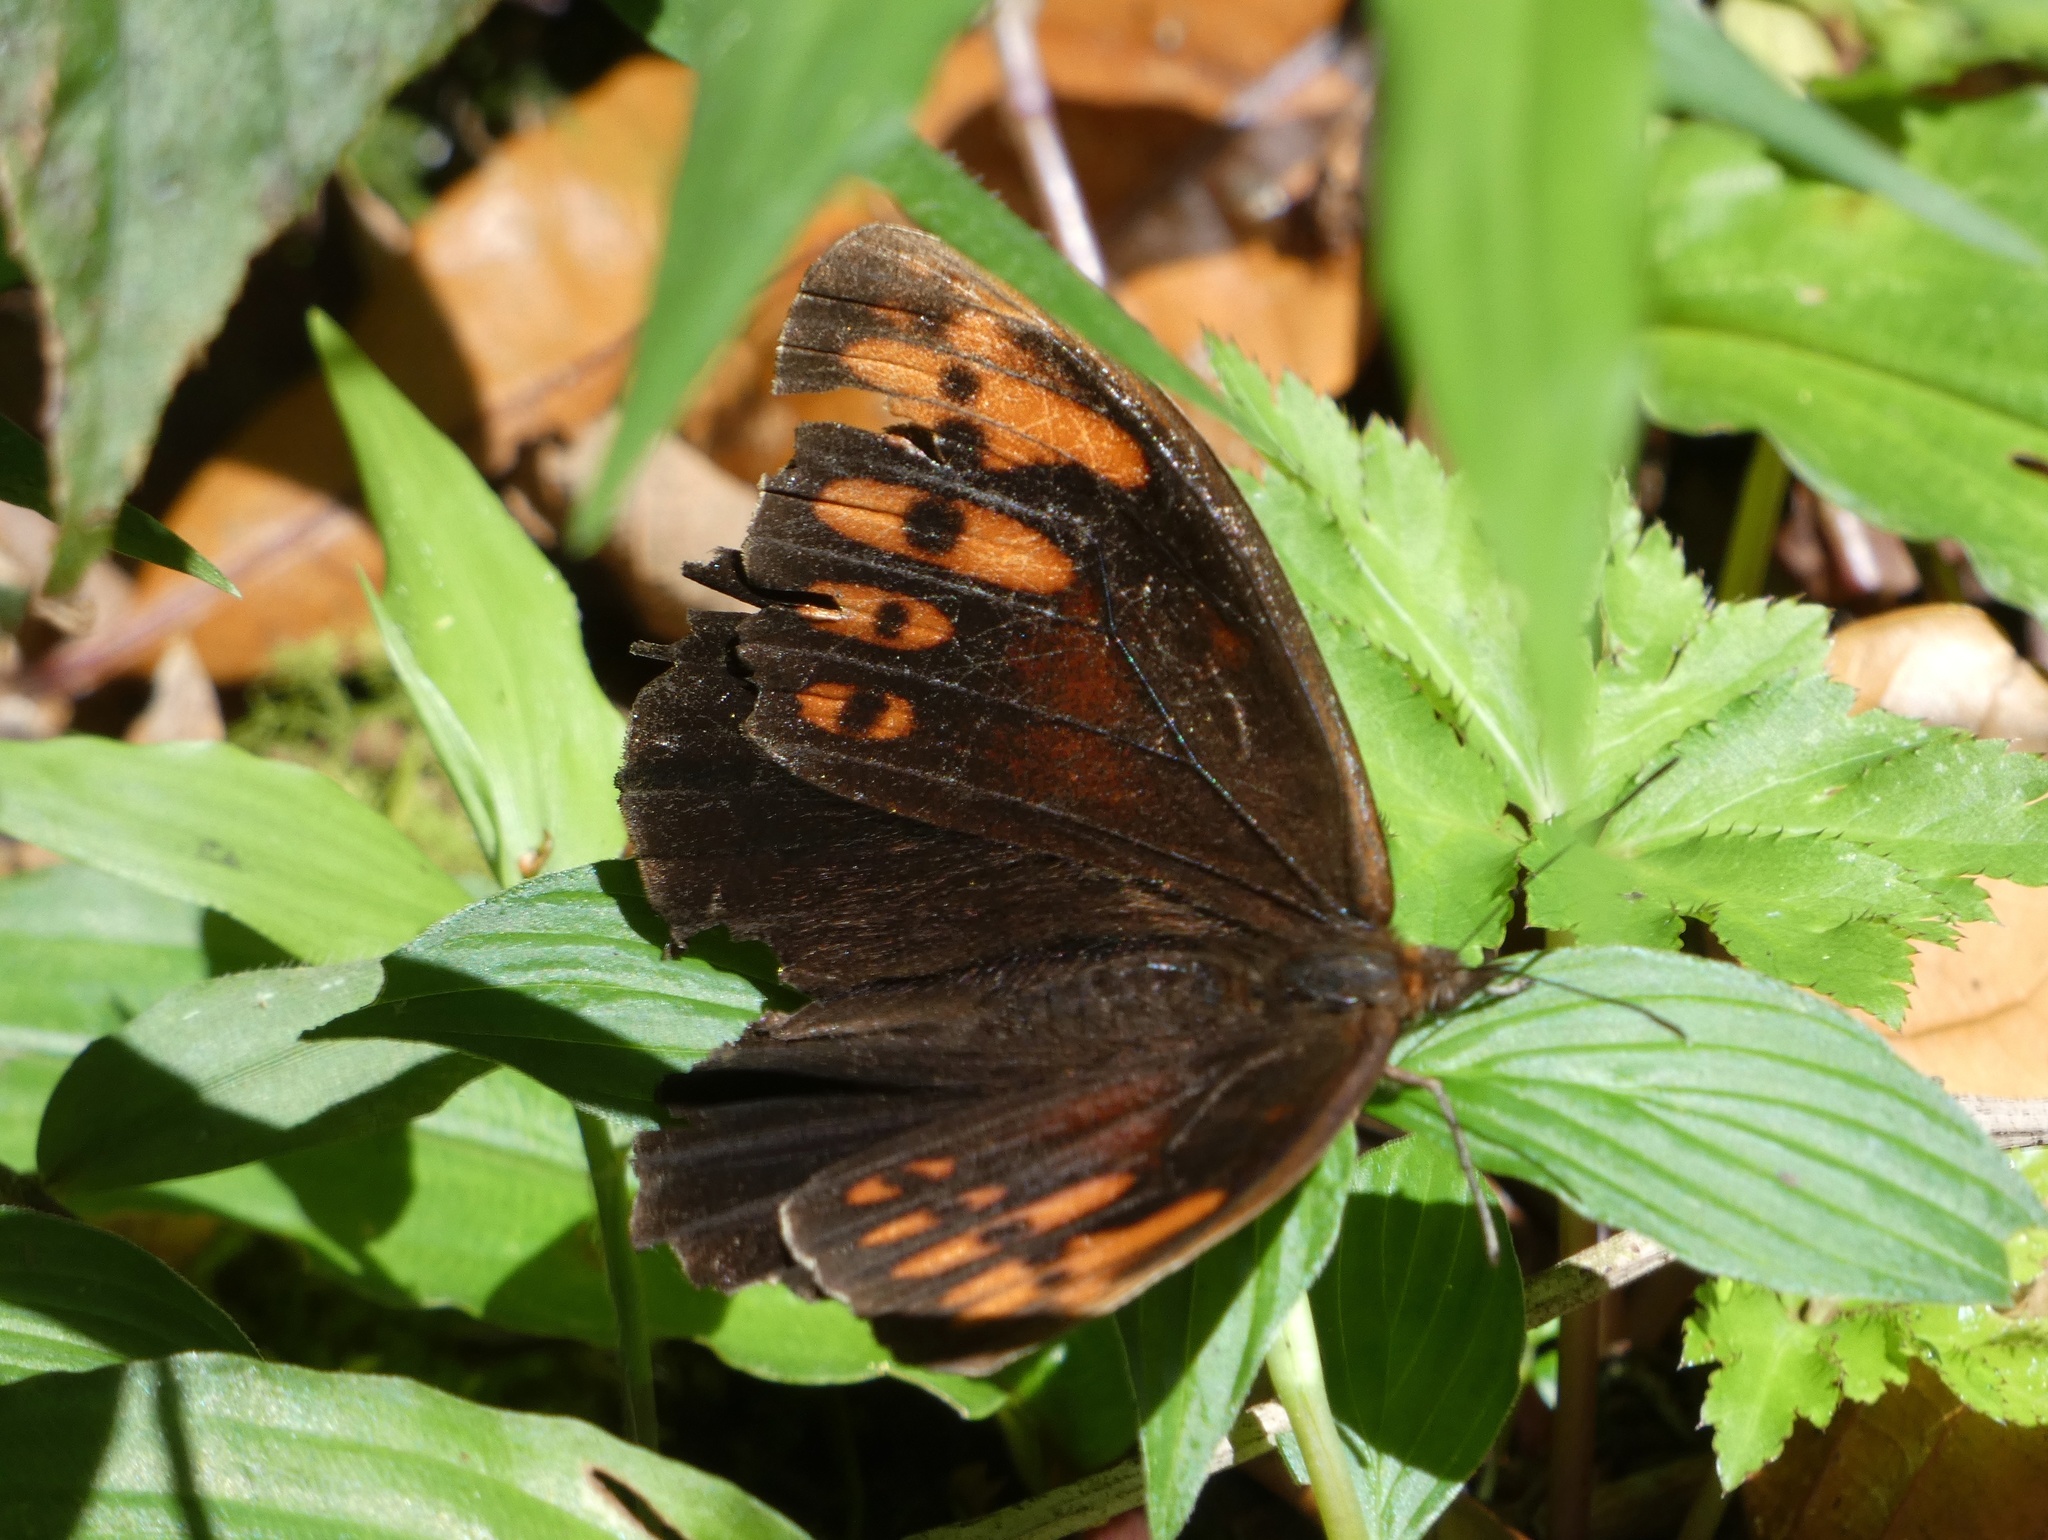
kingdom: Animalia
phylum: Arthropoda
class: Insecta
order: Lepidoptera
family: Nymphalidae
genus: Pronophila
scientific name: Pronophila timanthes
